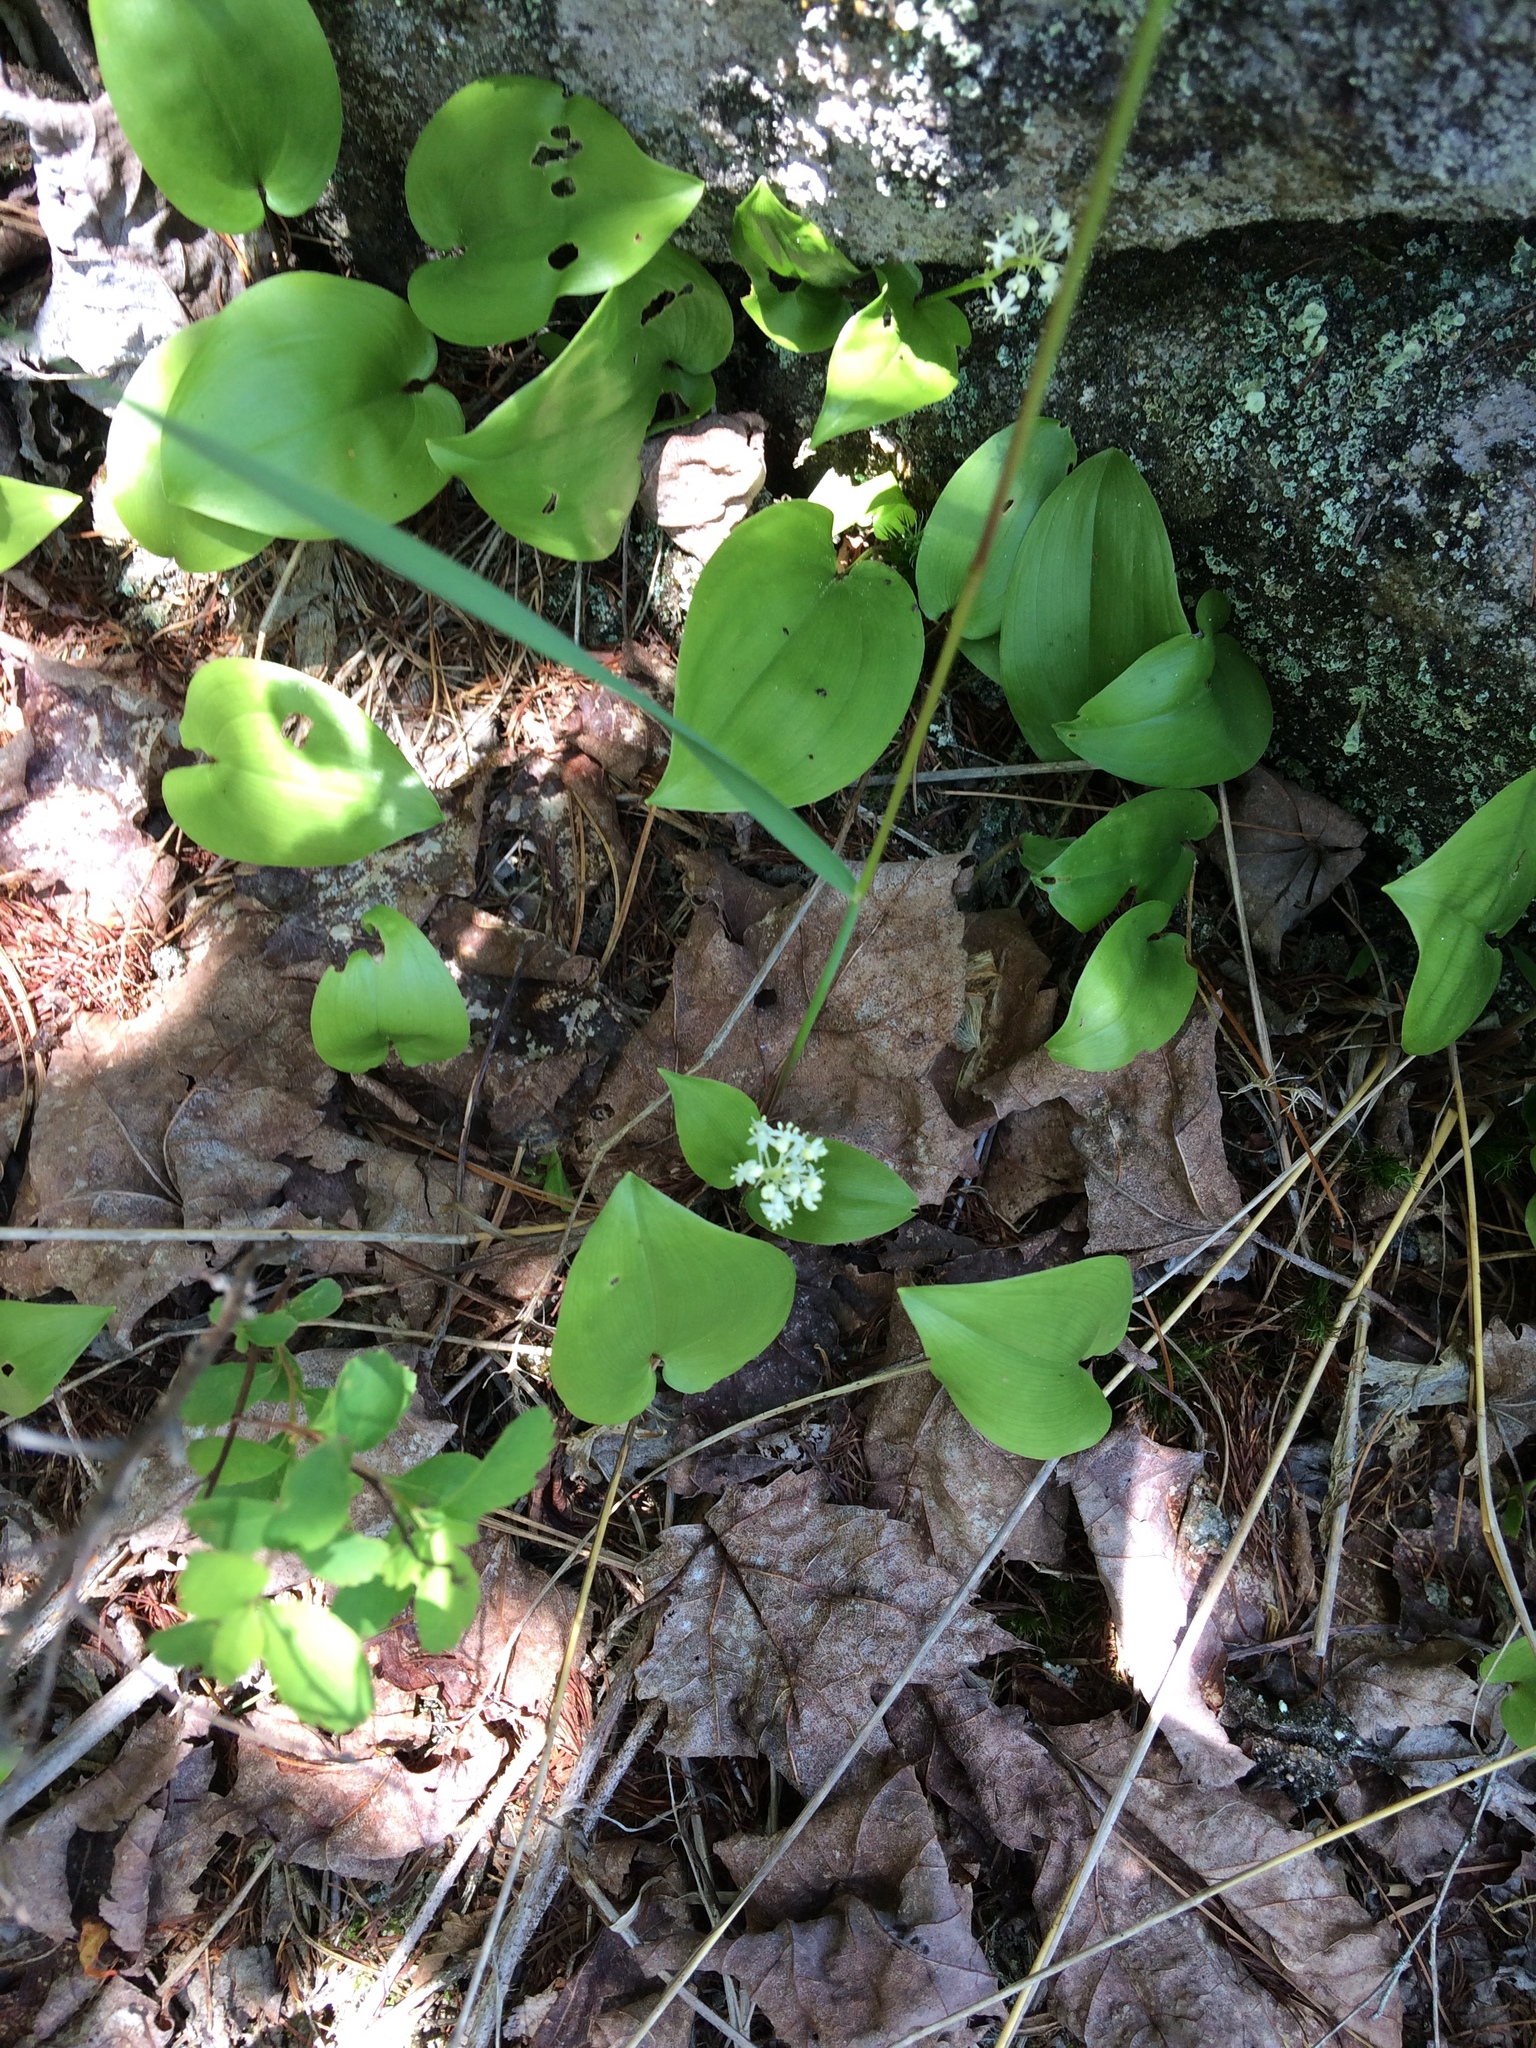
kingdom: Plantae
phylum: Tracheophyta
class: Liliopsida
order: Asparagales
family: Asparagaceae
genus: Maianthemum
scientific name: Maianthemum canadense
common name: False lily-of-the-valley
